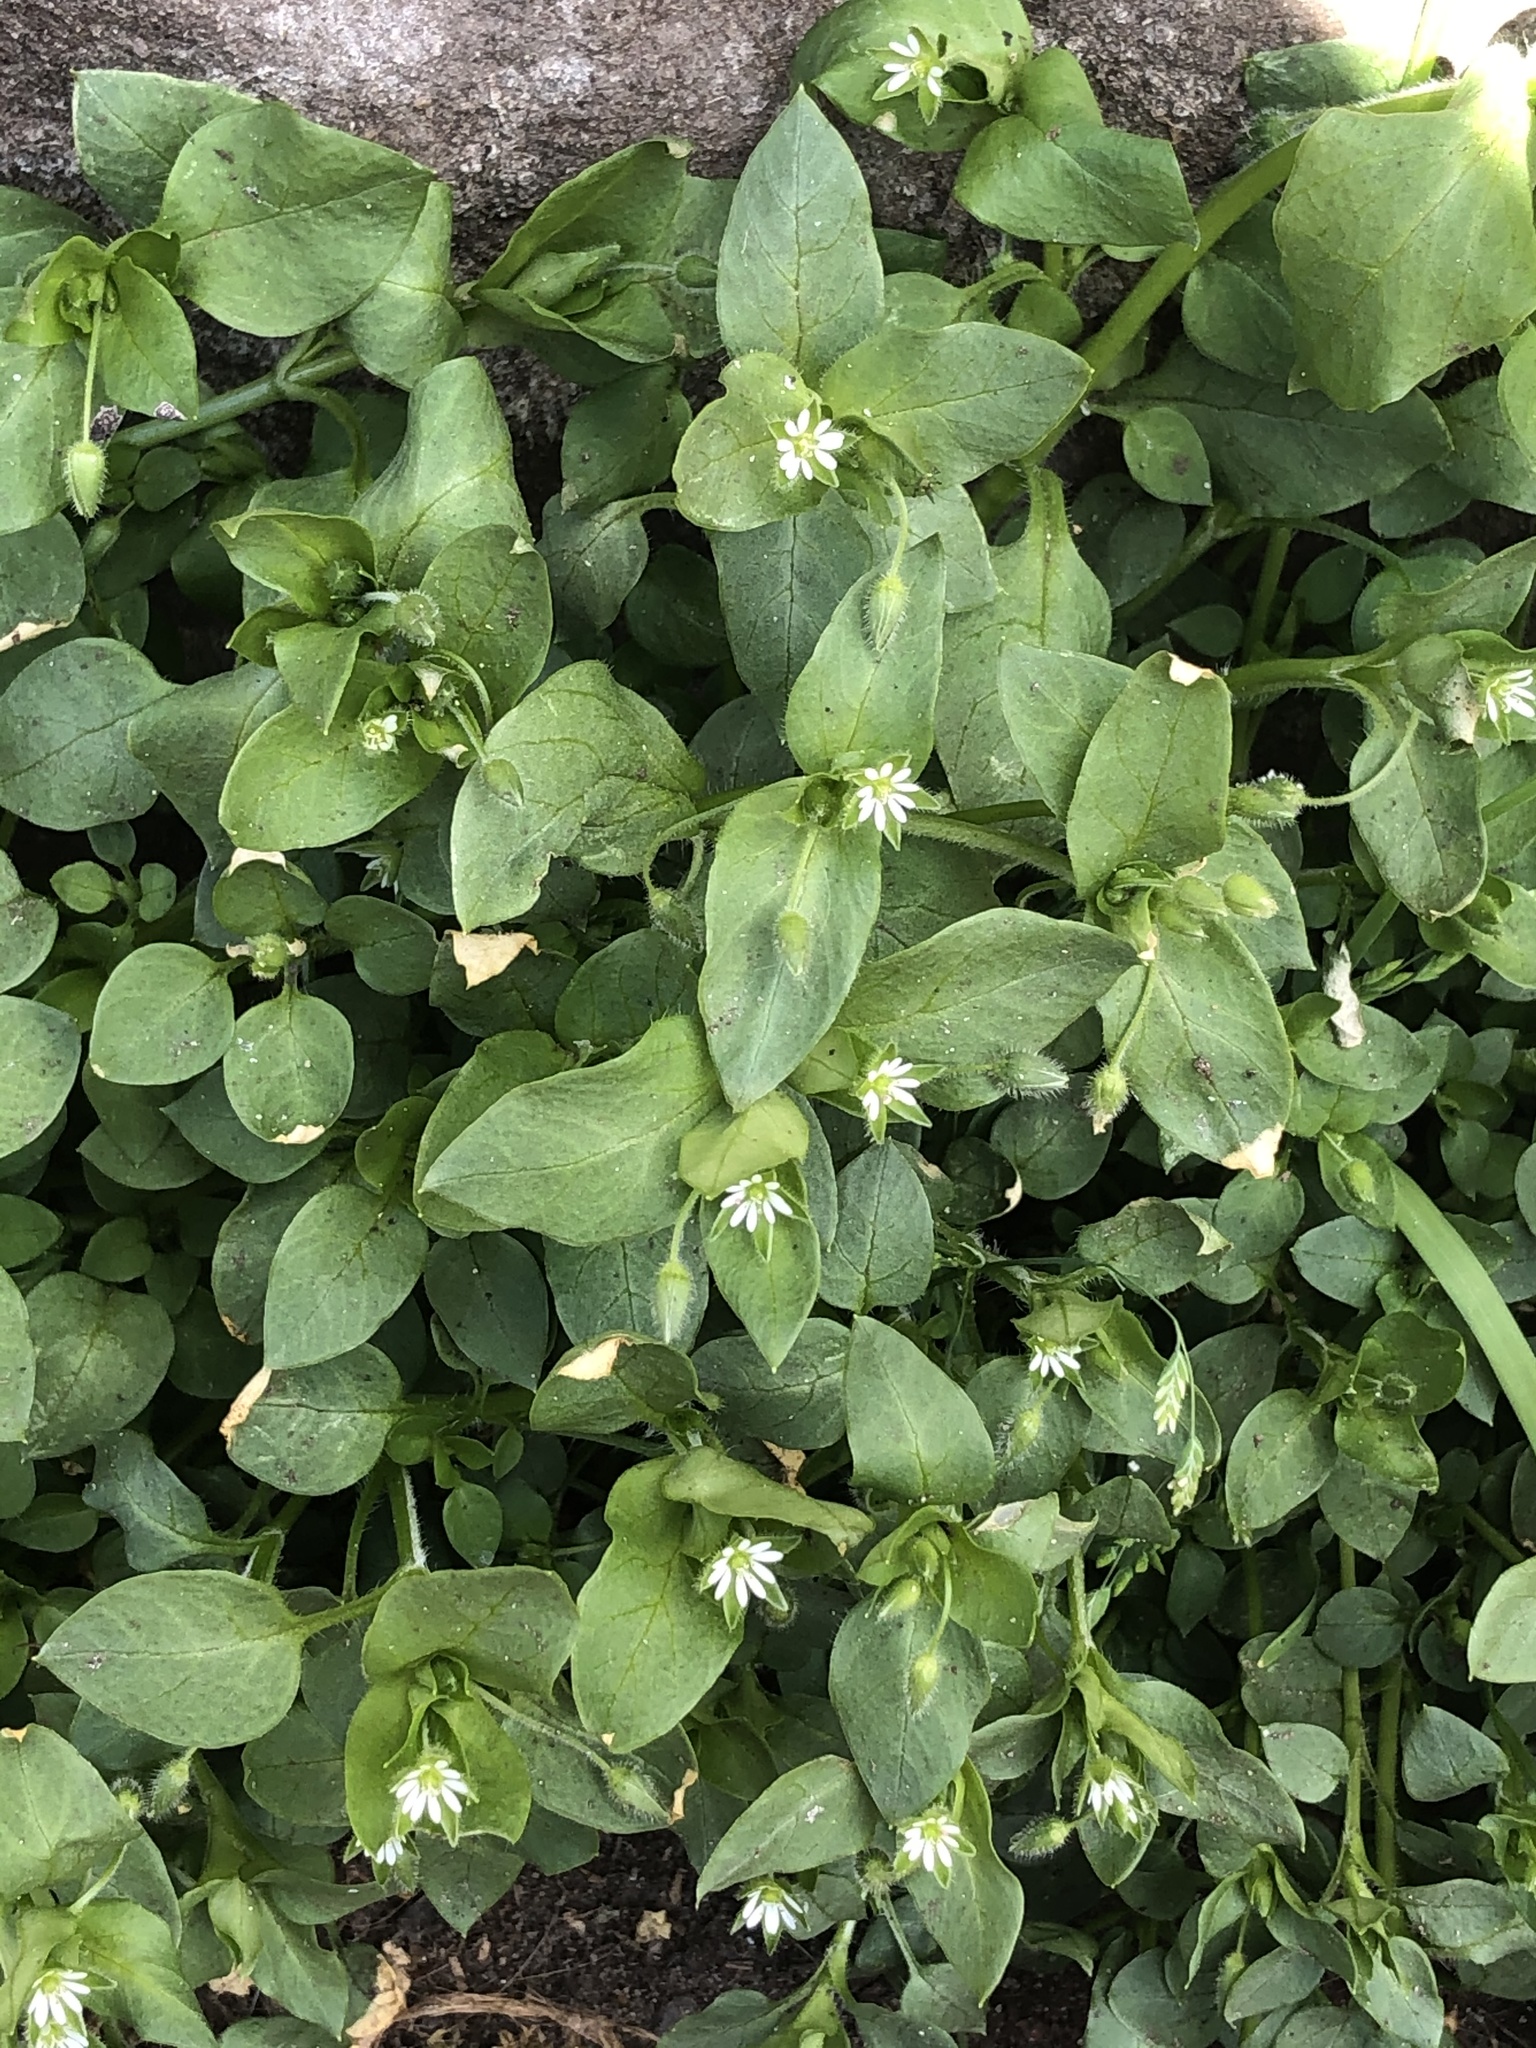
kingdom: Plantae
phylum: Tracheophyta
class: Magnoliopsida
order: Caryophyllales
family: Caryophyllaceae
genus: Stellaria
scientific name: Stellaria media
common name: Common chickweed
